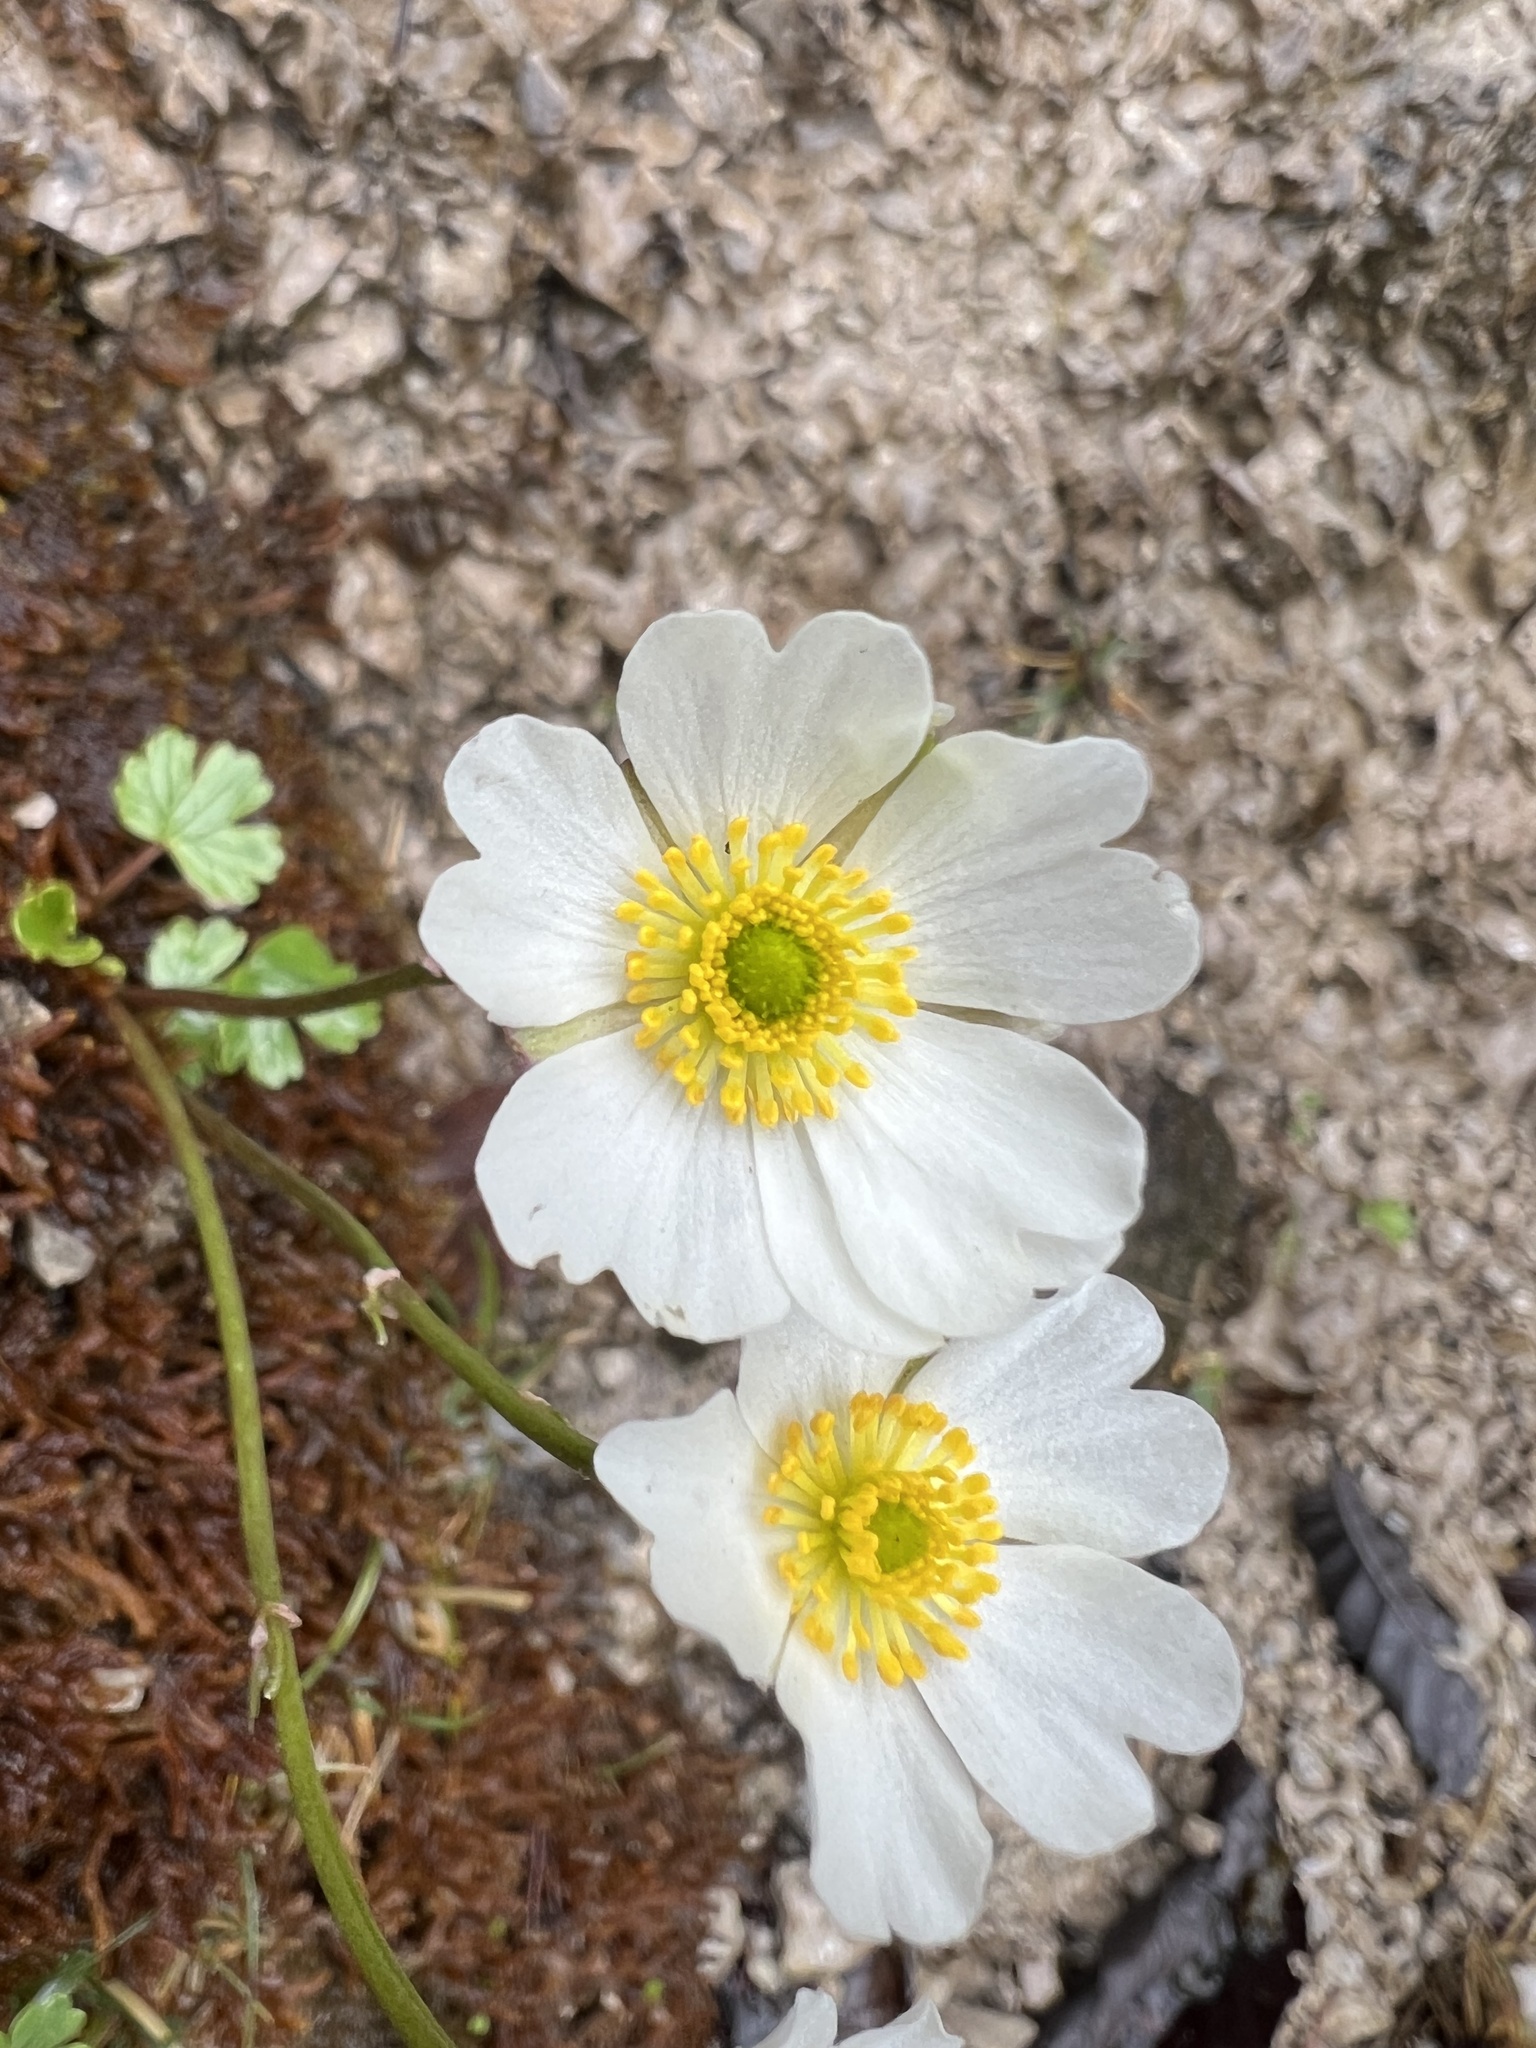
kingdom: Plantae
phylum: Tracheophyta
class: Magnoliopsida
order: Ranunculales
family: Ranunculaceae
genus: Ranunculus
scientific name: Ranunculus alpestris
